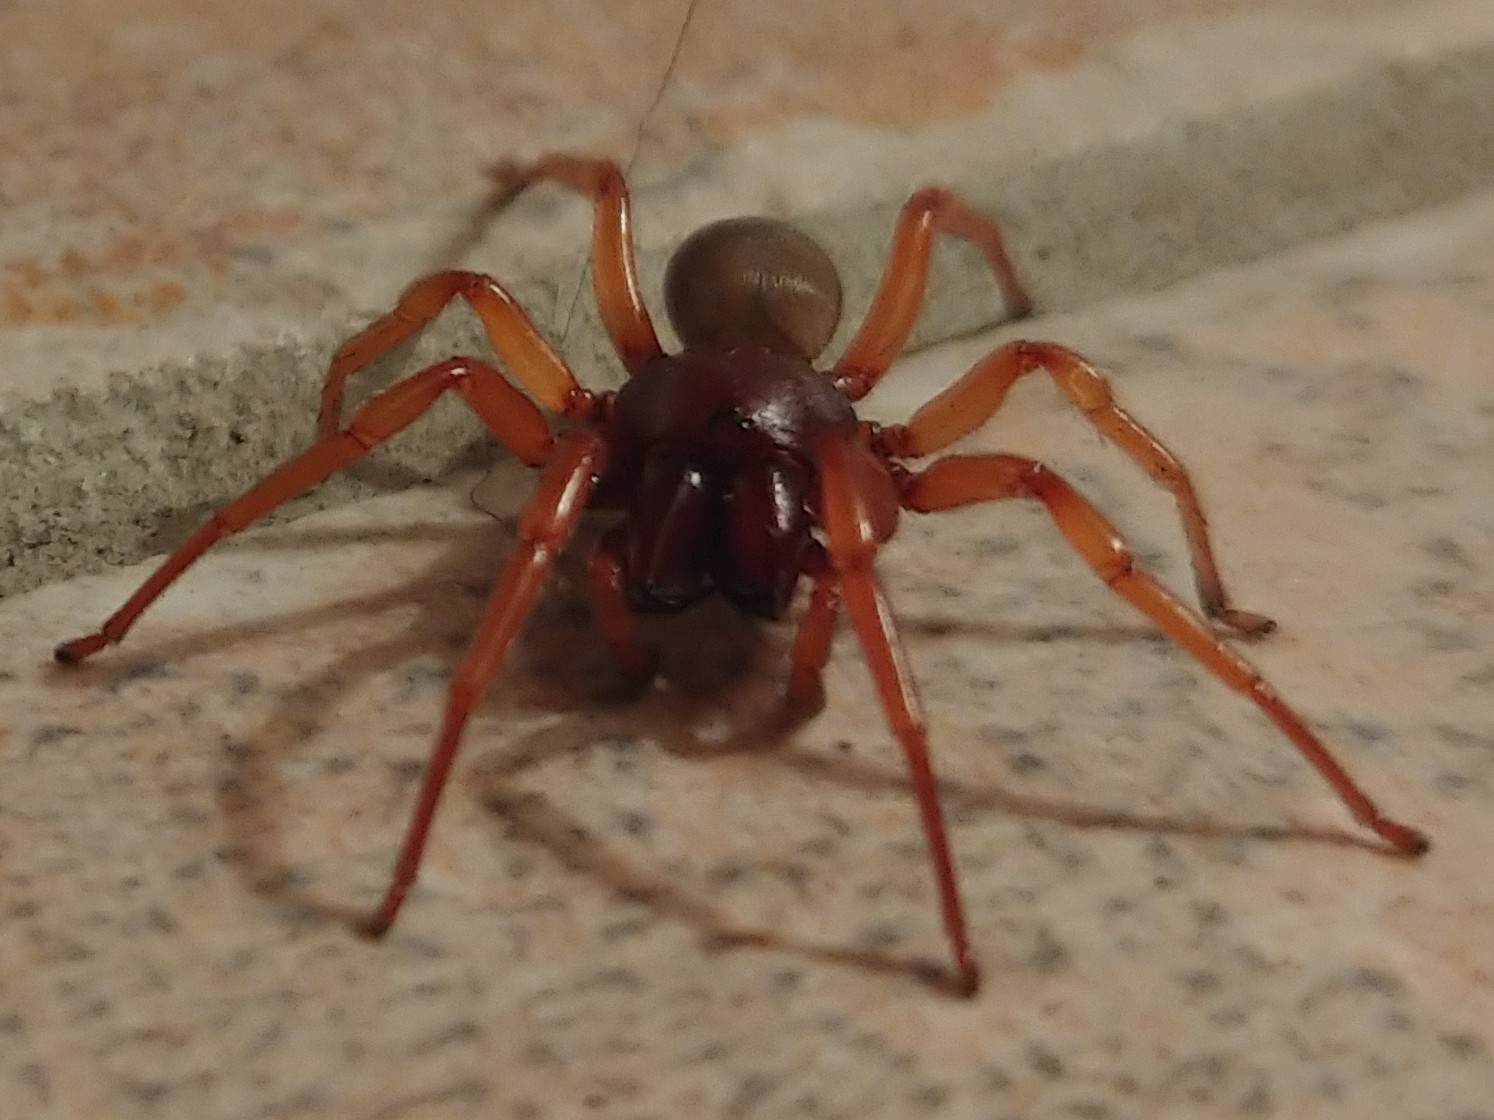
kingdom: Animalia
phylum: Arthropoda
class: Arachnida
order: Araneae
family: Dysderidae
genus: Dysdera
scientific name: Dysdera crocata
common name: Woodlouse spider
